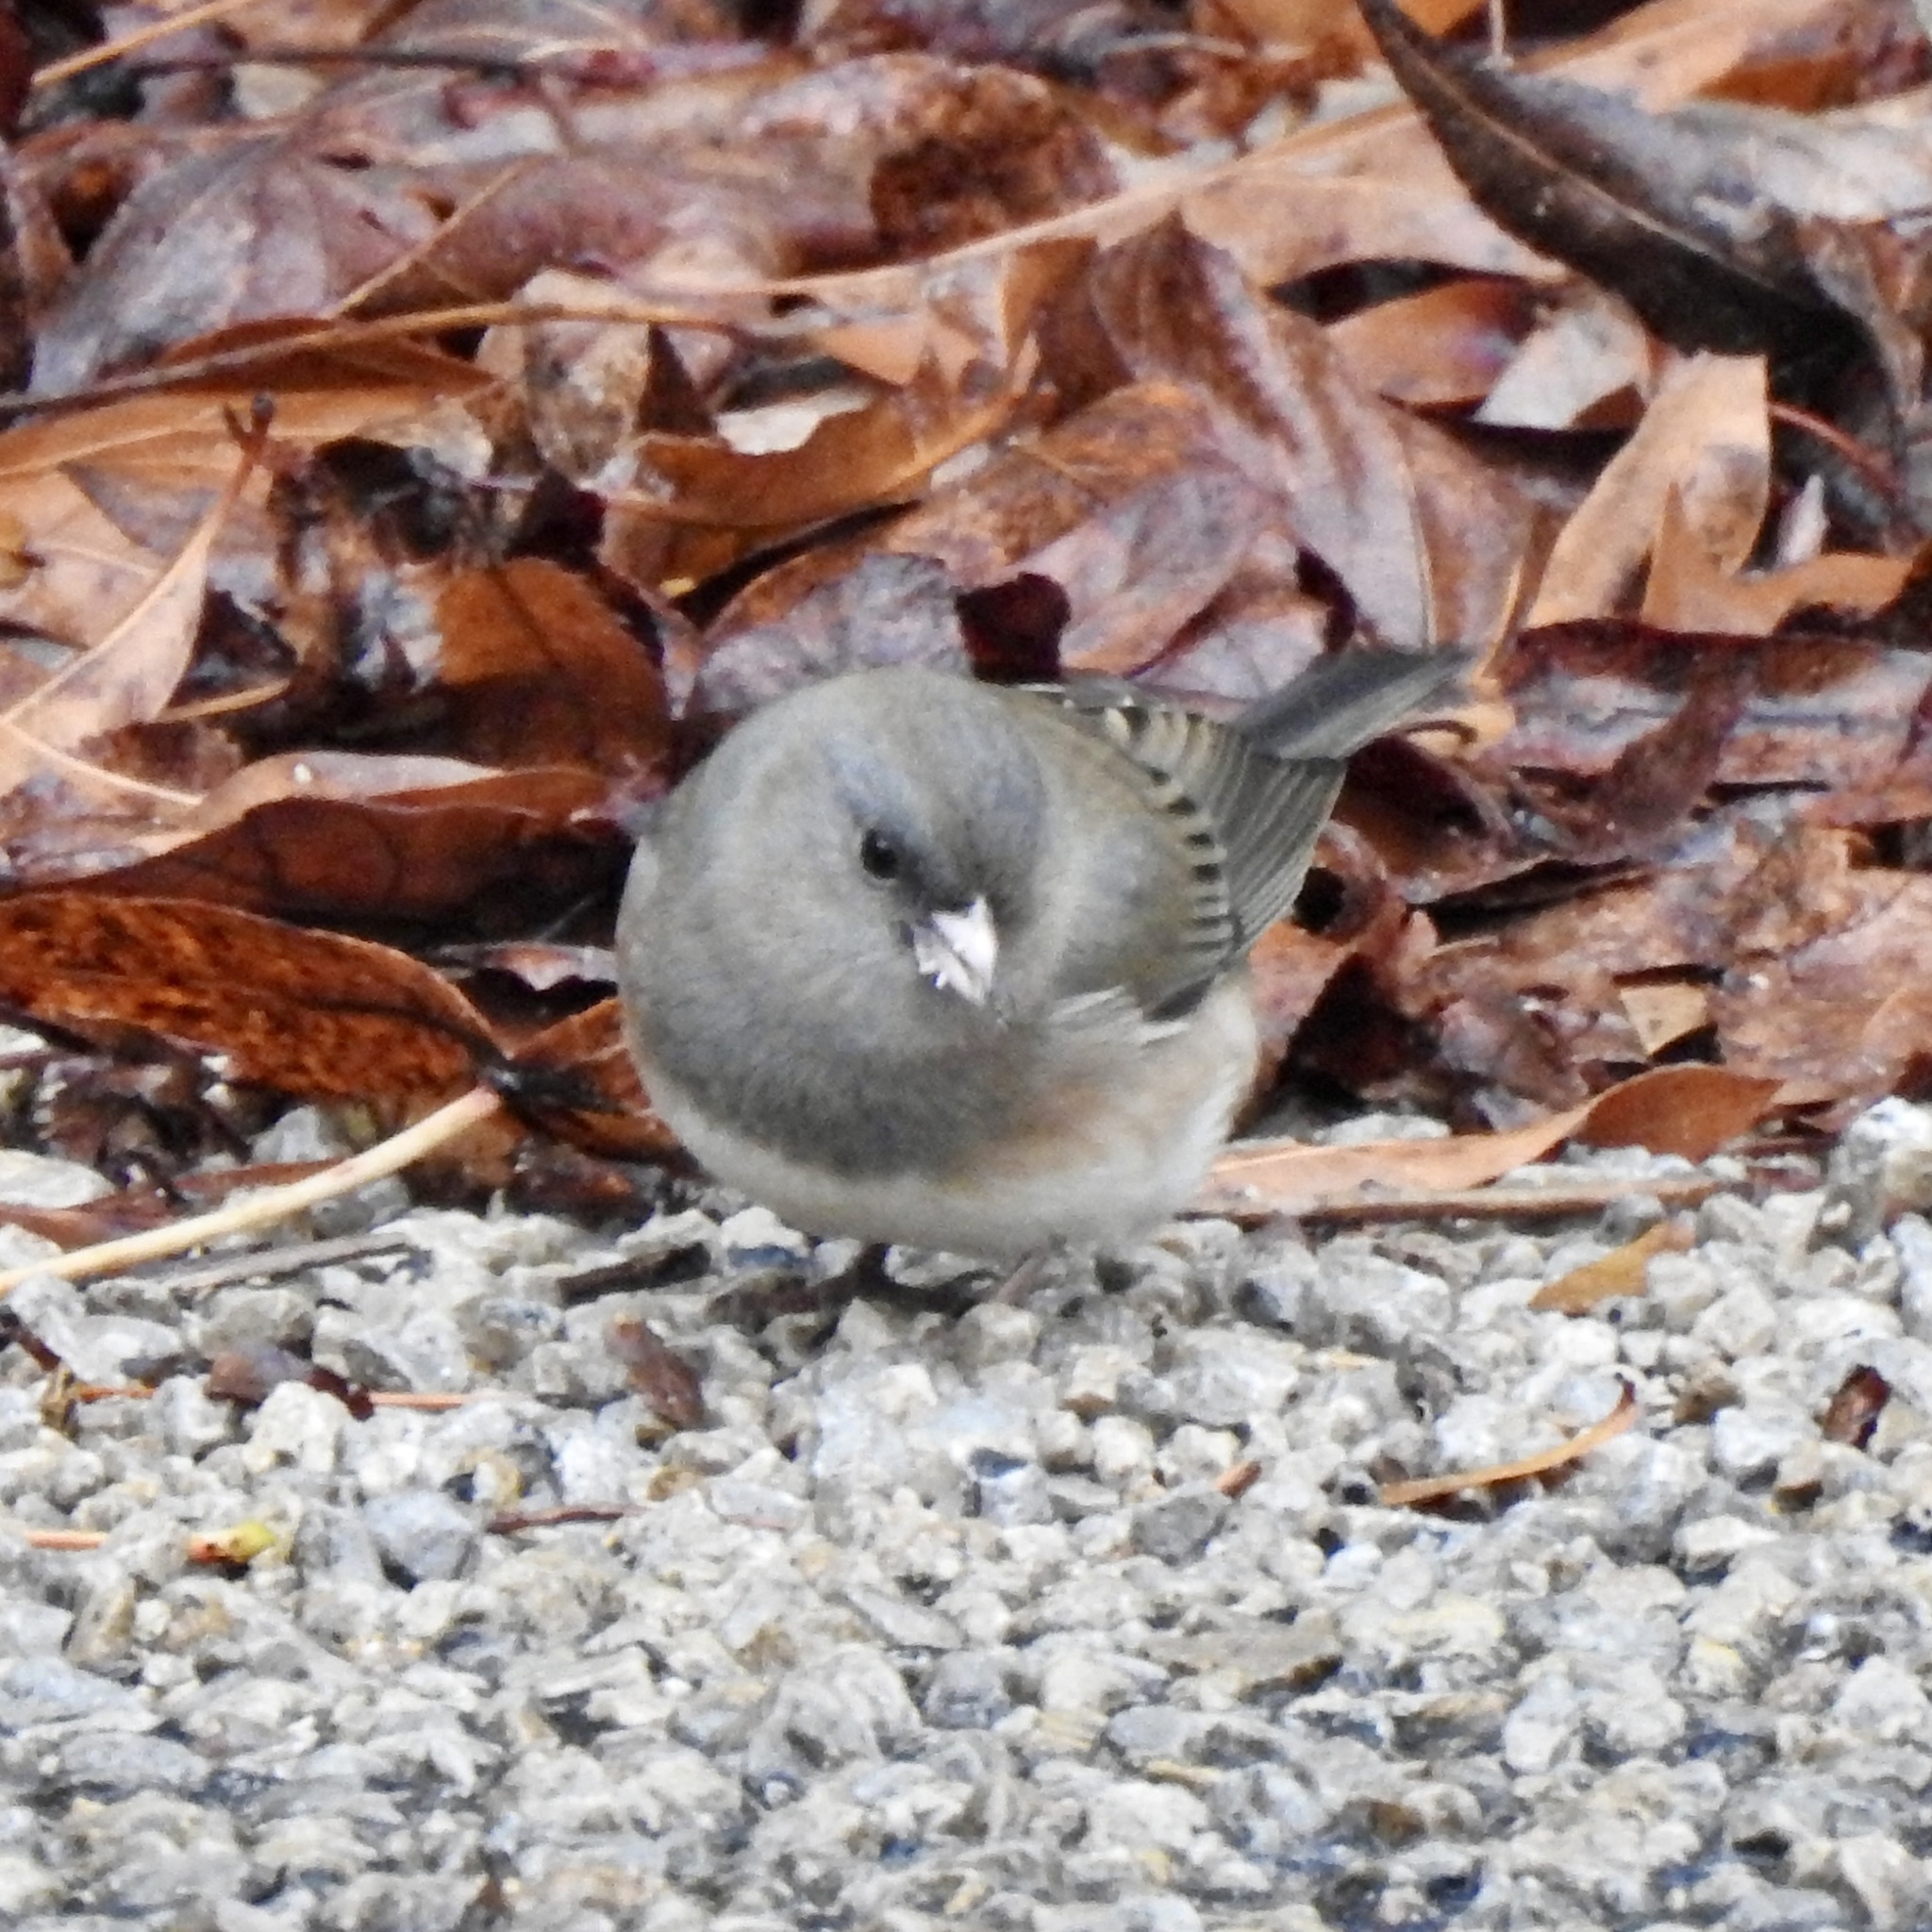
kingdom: Animalia
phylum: Chordata
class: Aves
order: Passeriformes
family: Passerellidae
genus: Junco
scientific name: Junco hyemalis
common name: Dark-eyed junco
